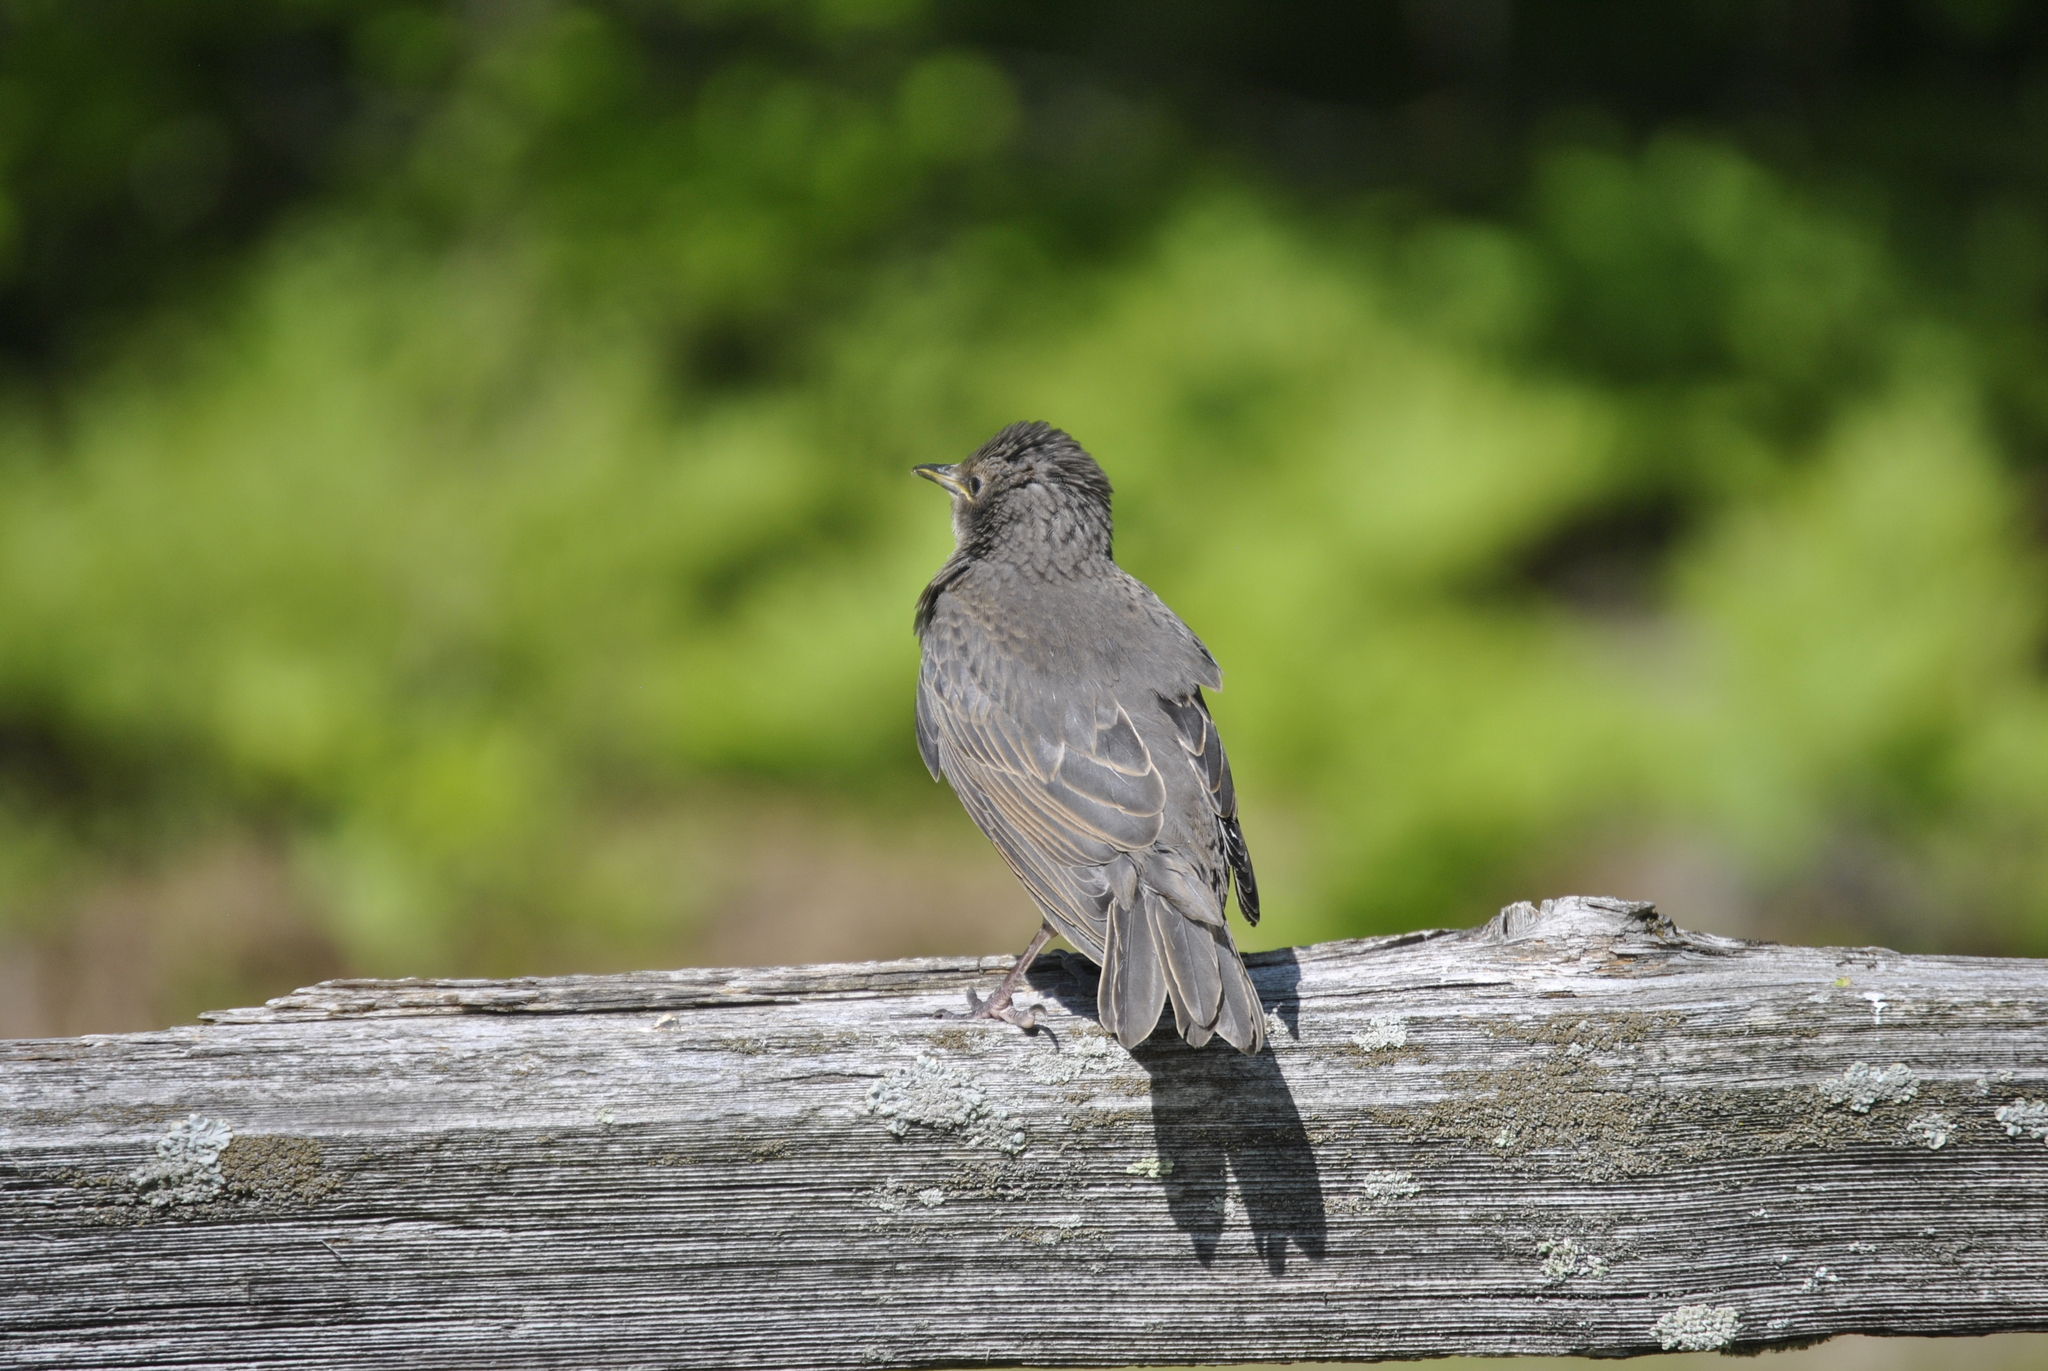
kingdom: Animalia
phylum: Chordata
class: Aves
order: Passeriformes
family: Sturnidae
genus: Sturnus
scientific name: Sturnus vulgaris
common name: Common starling
